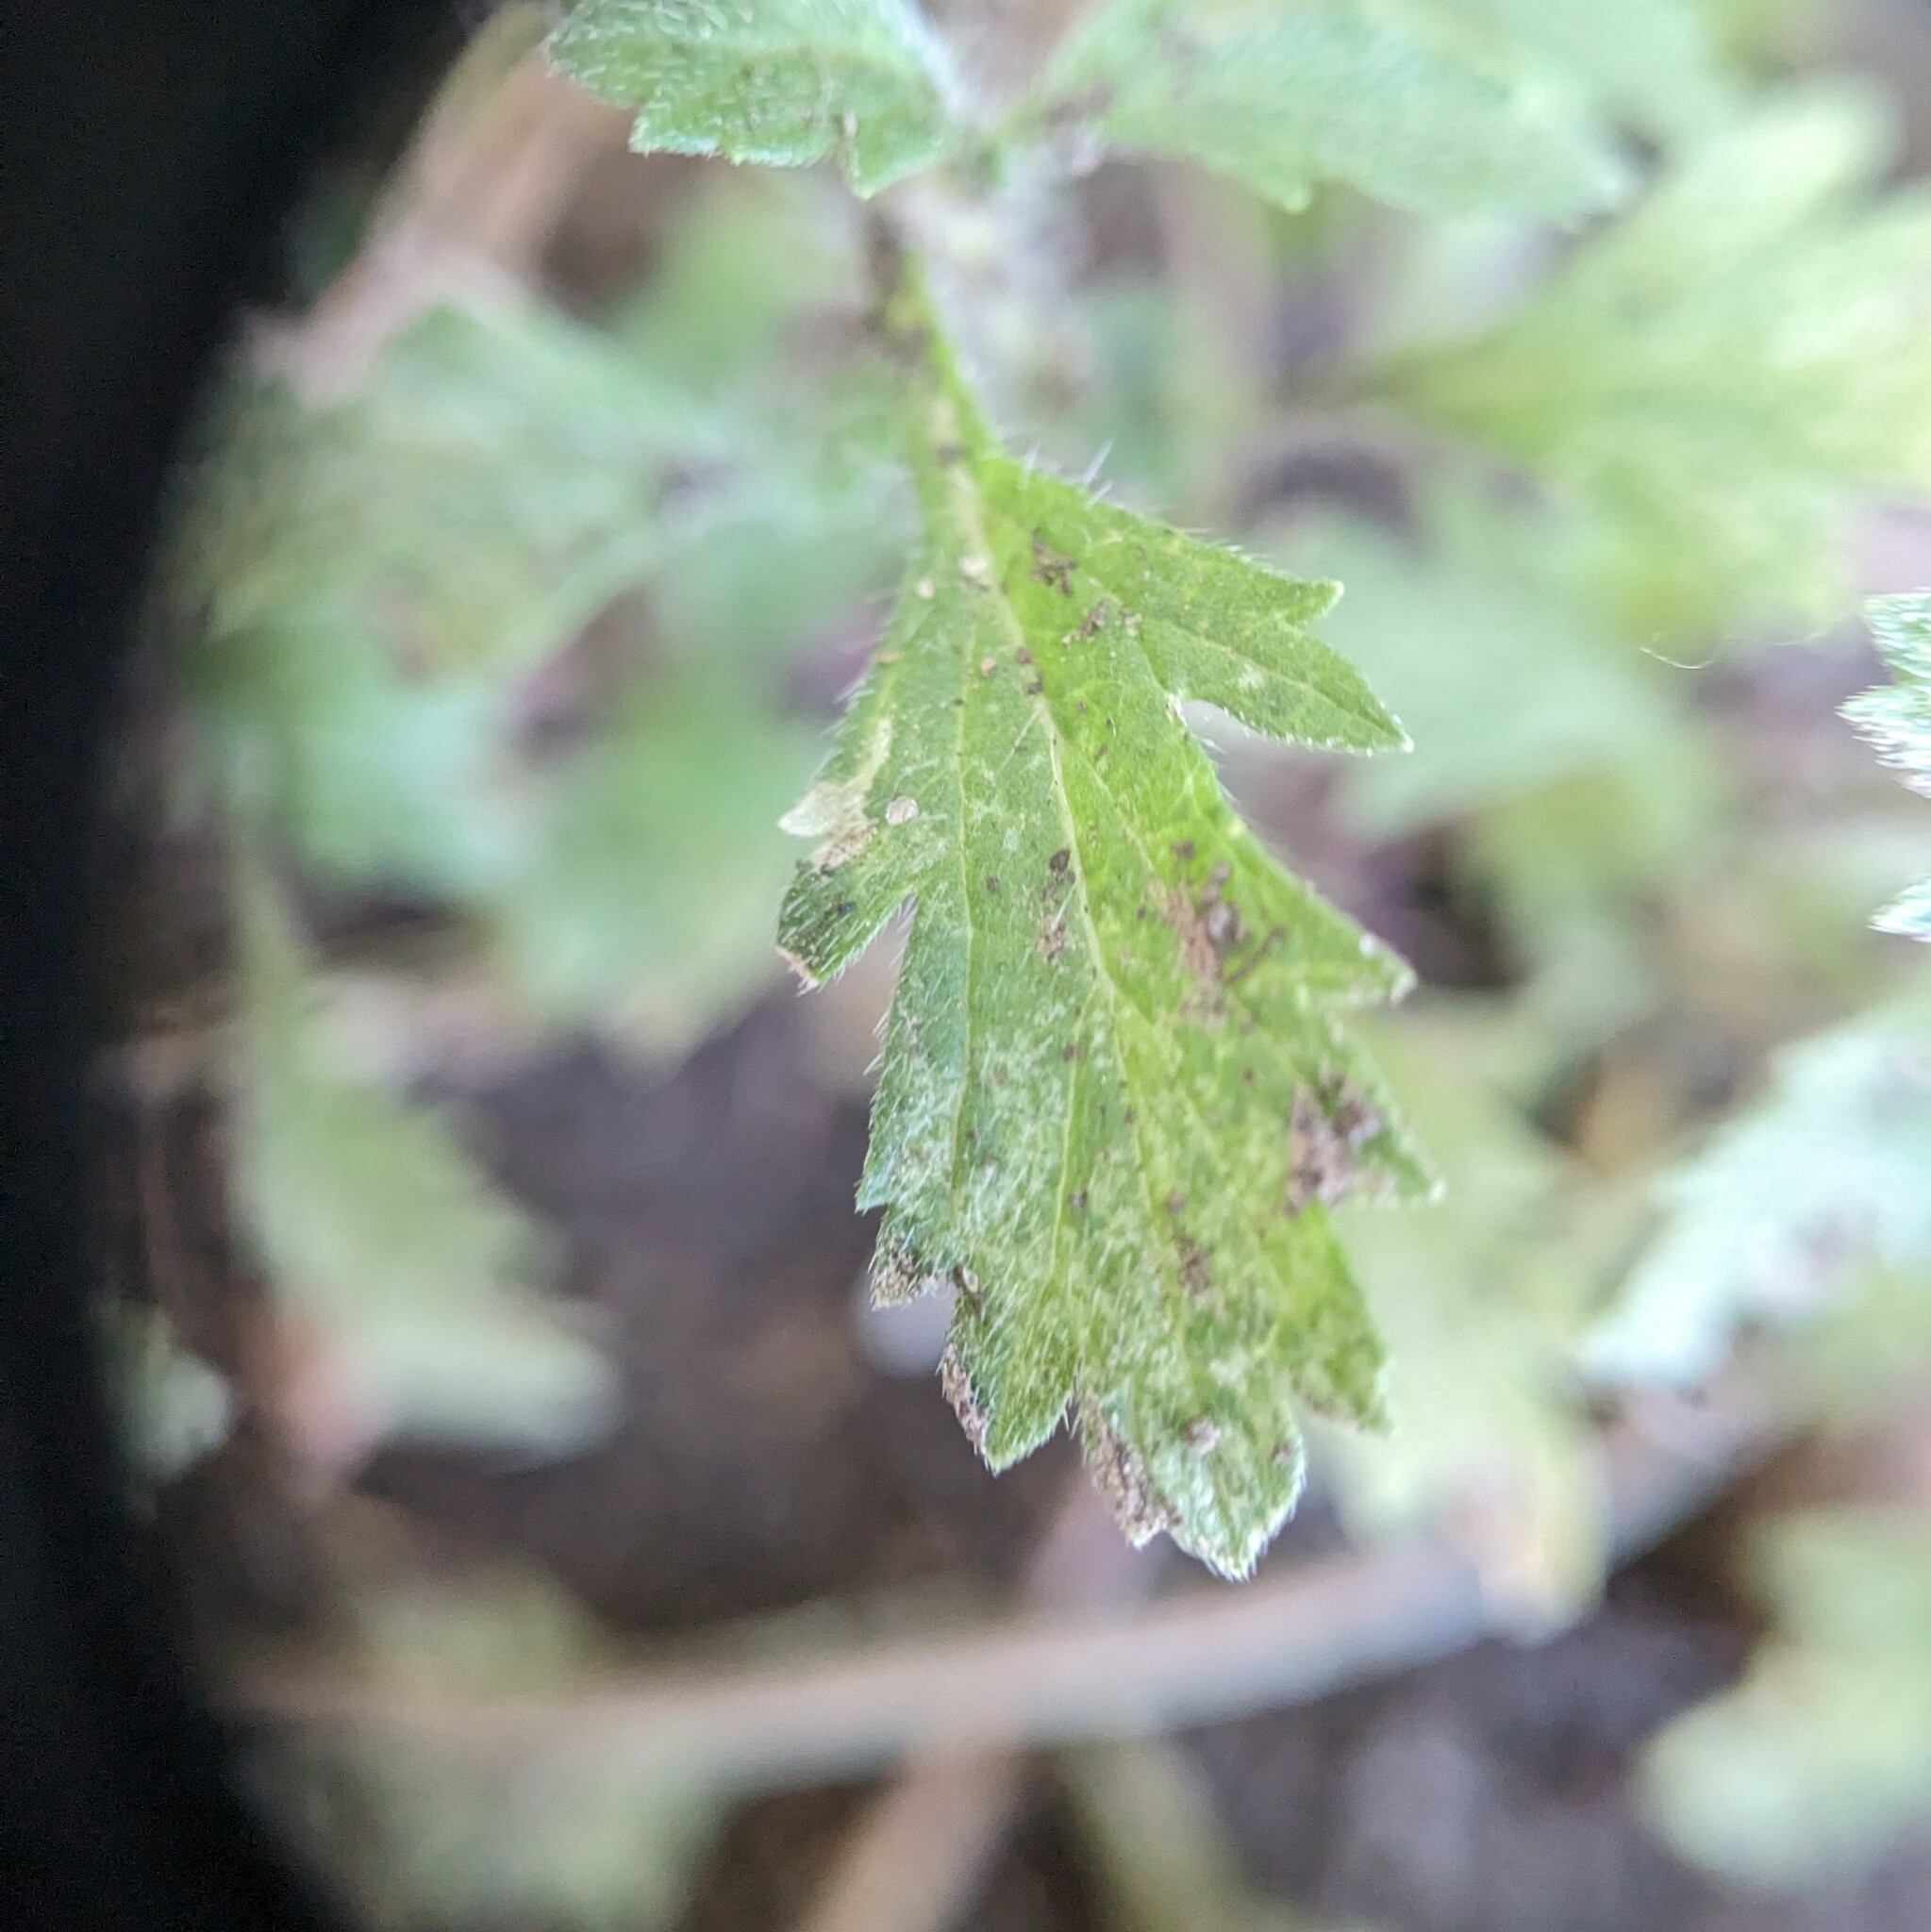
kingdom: Plantae
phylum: Tracheophyta
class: Magnoliopsida
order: Lamiales
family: Verbenaceae
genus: Verbena
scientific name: Verbena bracteata
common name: Bracted vervain
